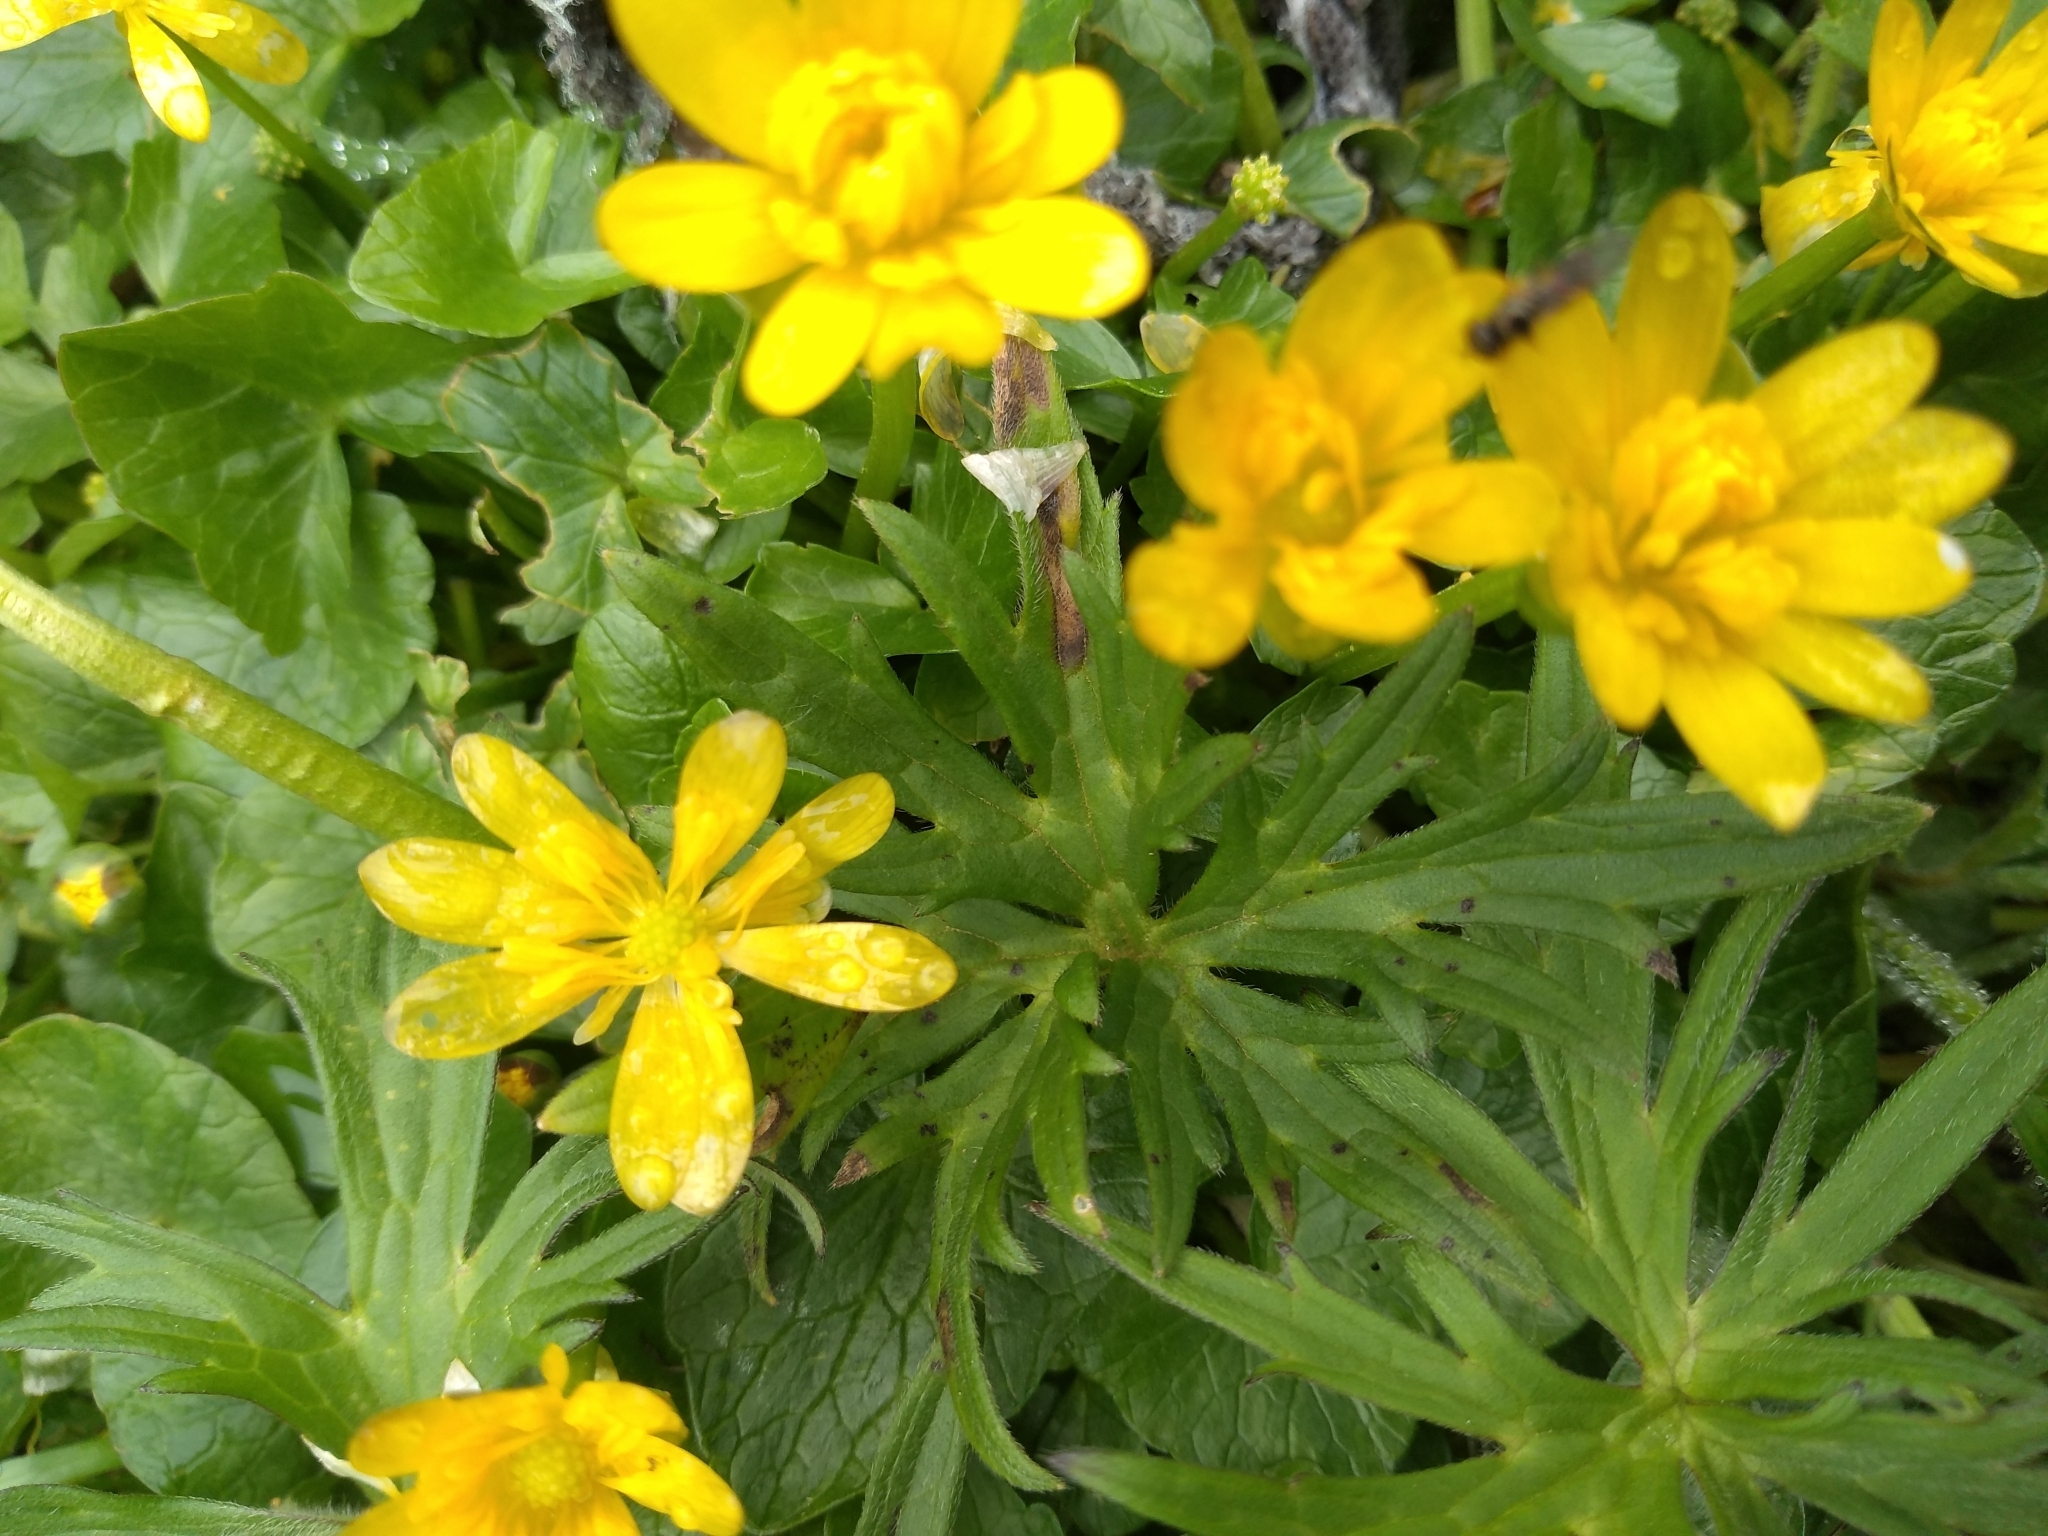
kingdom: Plantae
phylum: Tracheophyta
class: Magnoliopsida
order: Ranunculales
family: Ranunculaceae
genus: Ficaria
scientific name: Ficaria verna
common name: Lesser celandine
